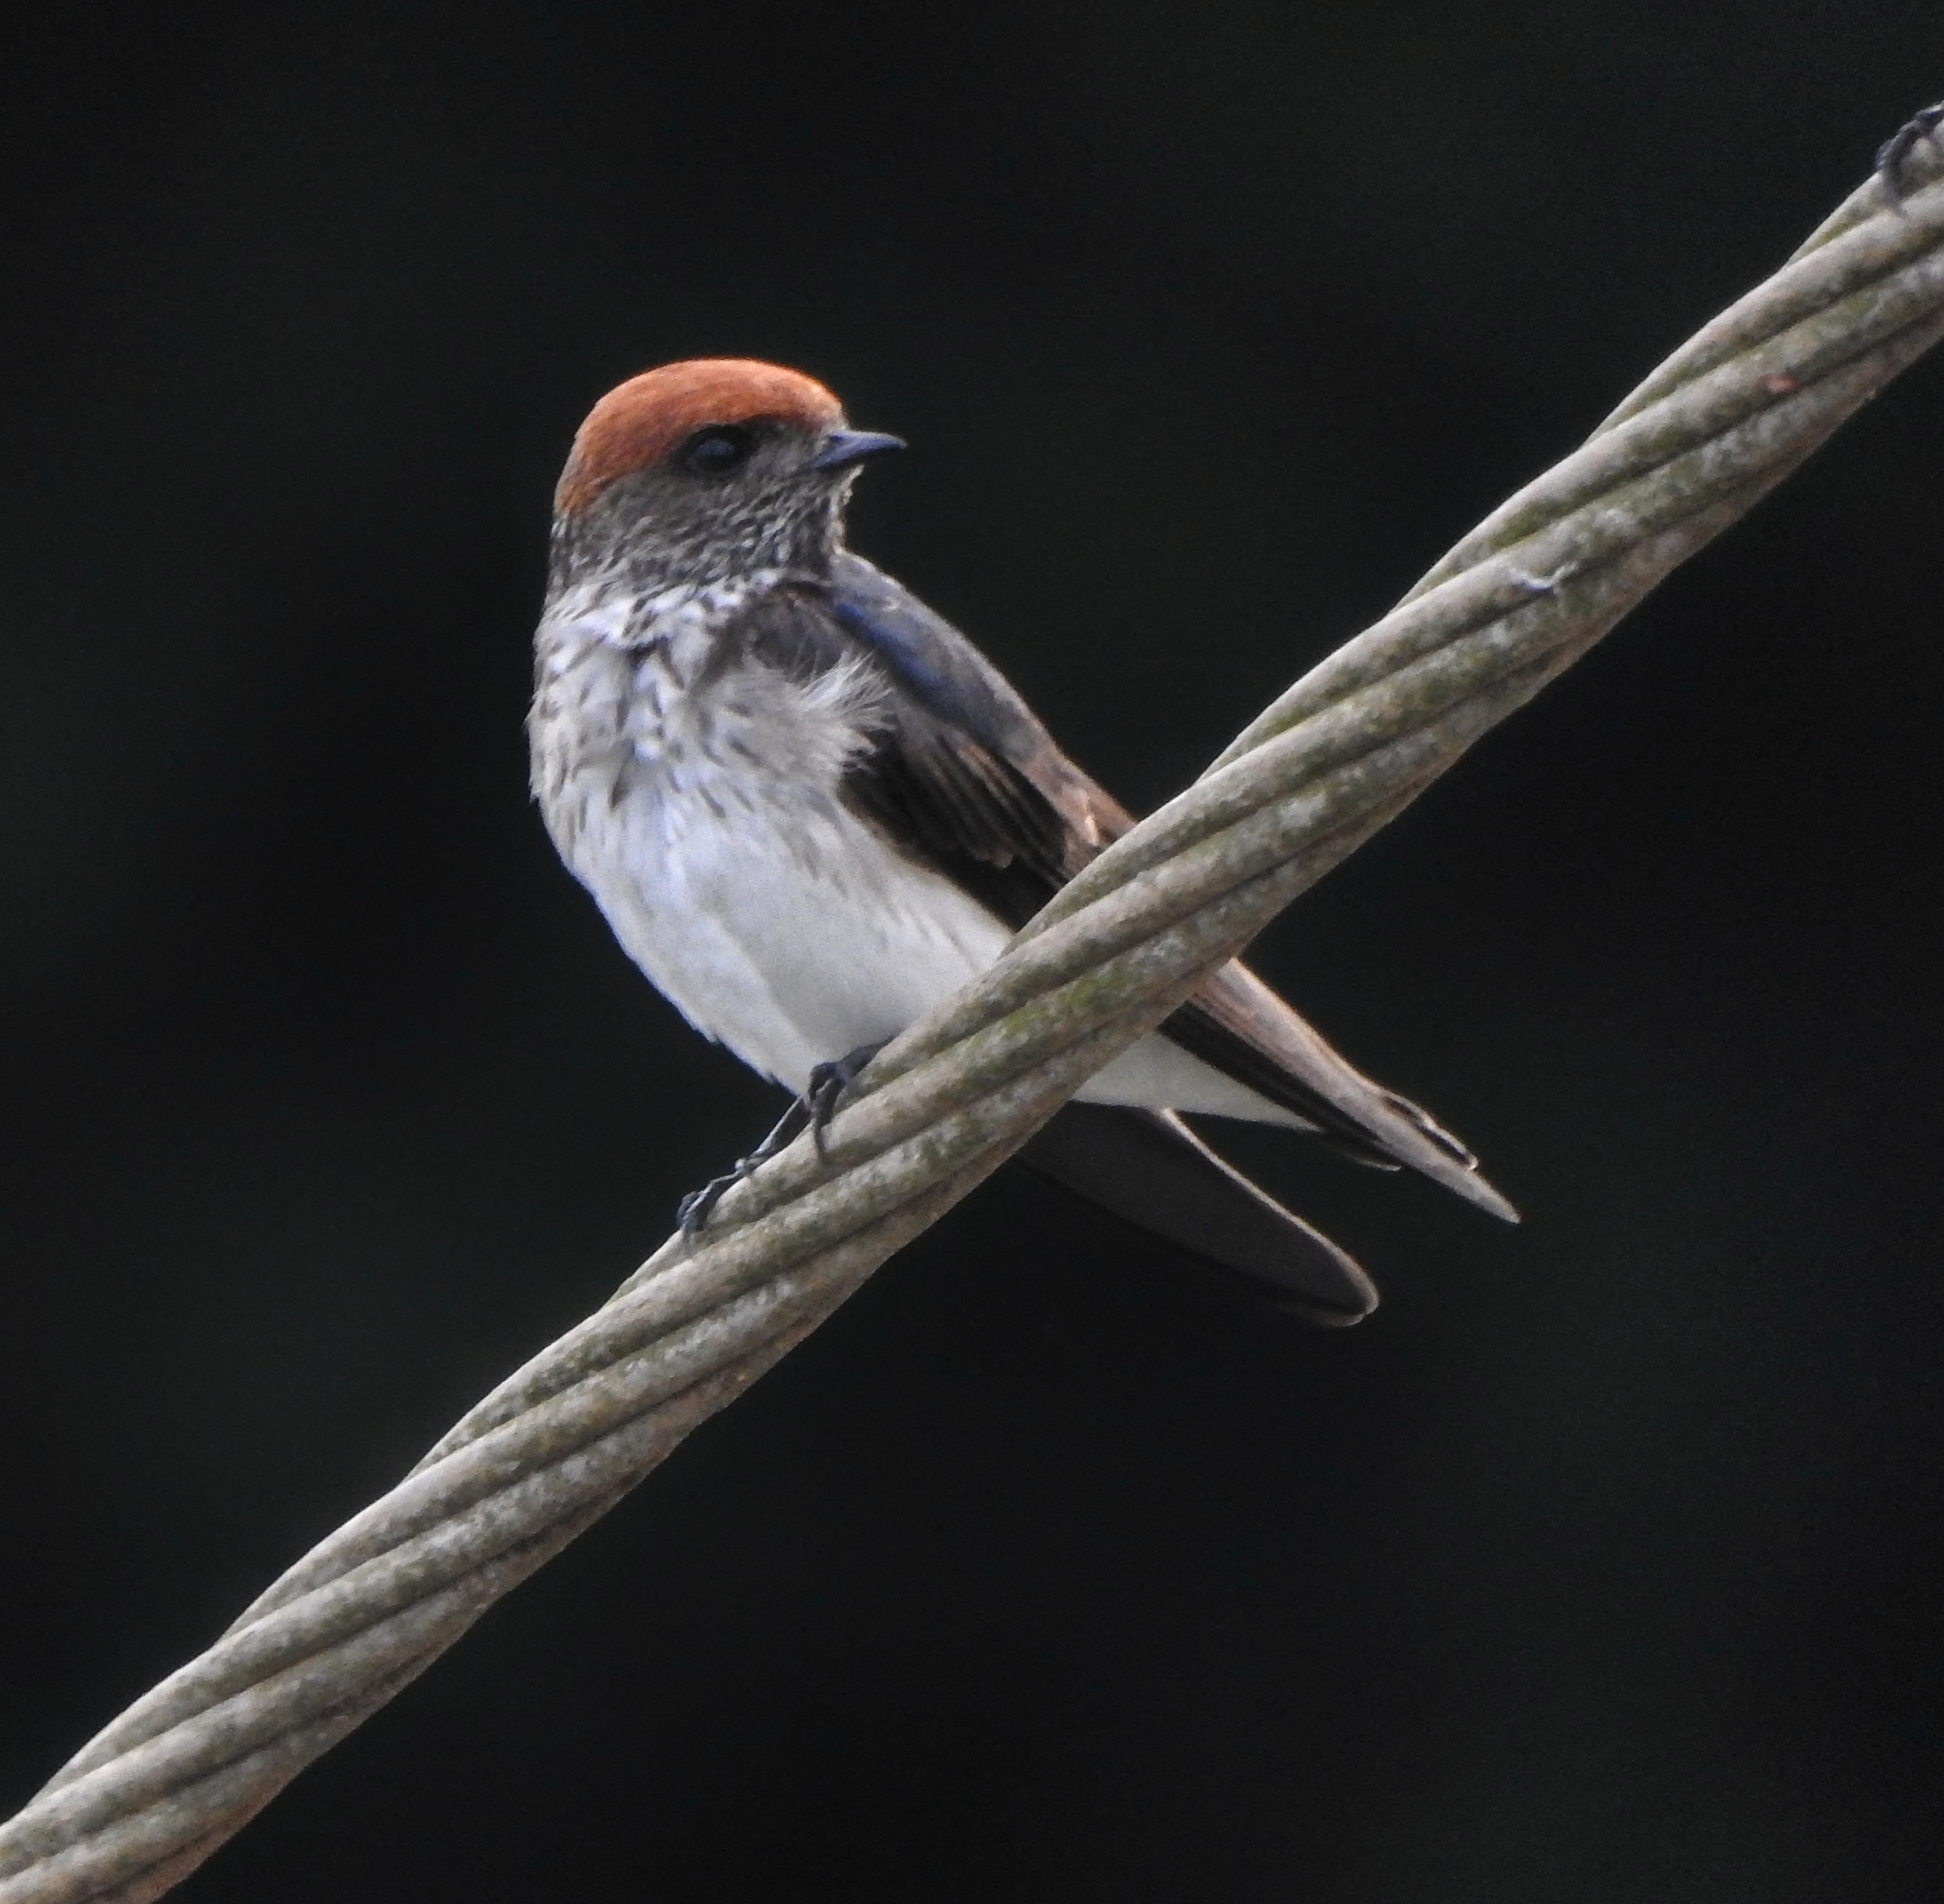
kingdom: Animalia
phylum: Chordata
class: Aves
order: Passeriformes
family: Hirundinidae
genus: Petrochelidon
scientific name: Petrochelidon fluvicola
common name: Streak-throated swallow
